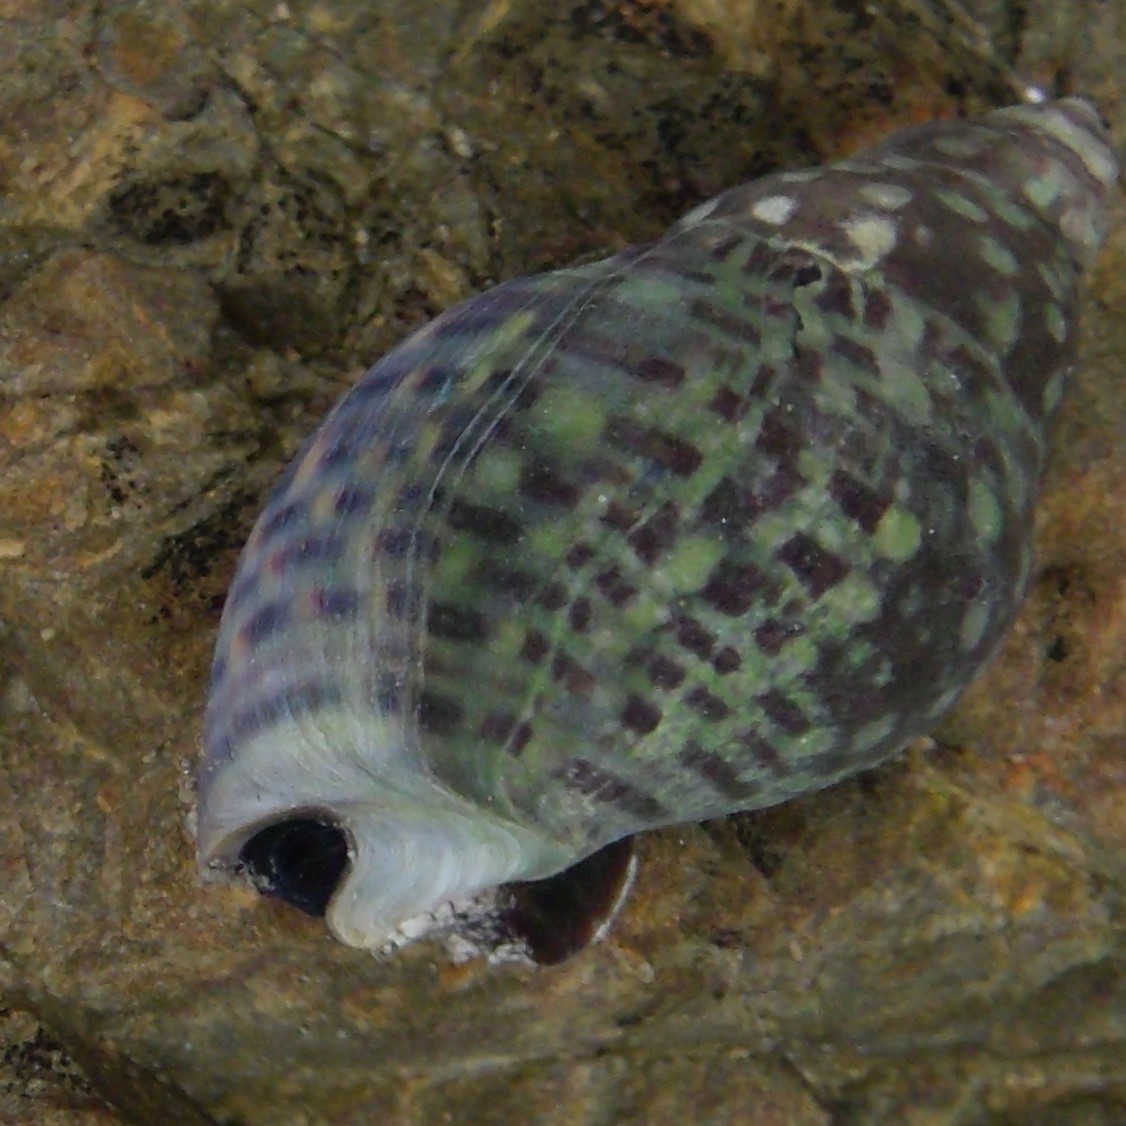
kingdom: Animalia
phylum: Mollusca
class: Gastropoda
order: Neogastropoda
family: Cominellidae
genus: Cominella
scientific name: Cominella maculosa
